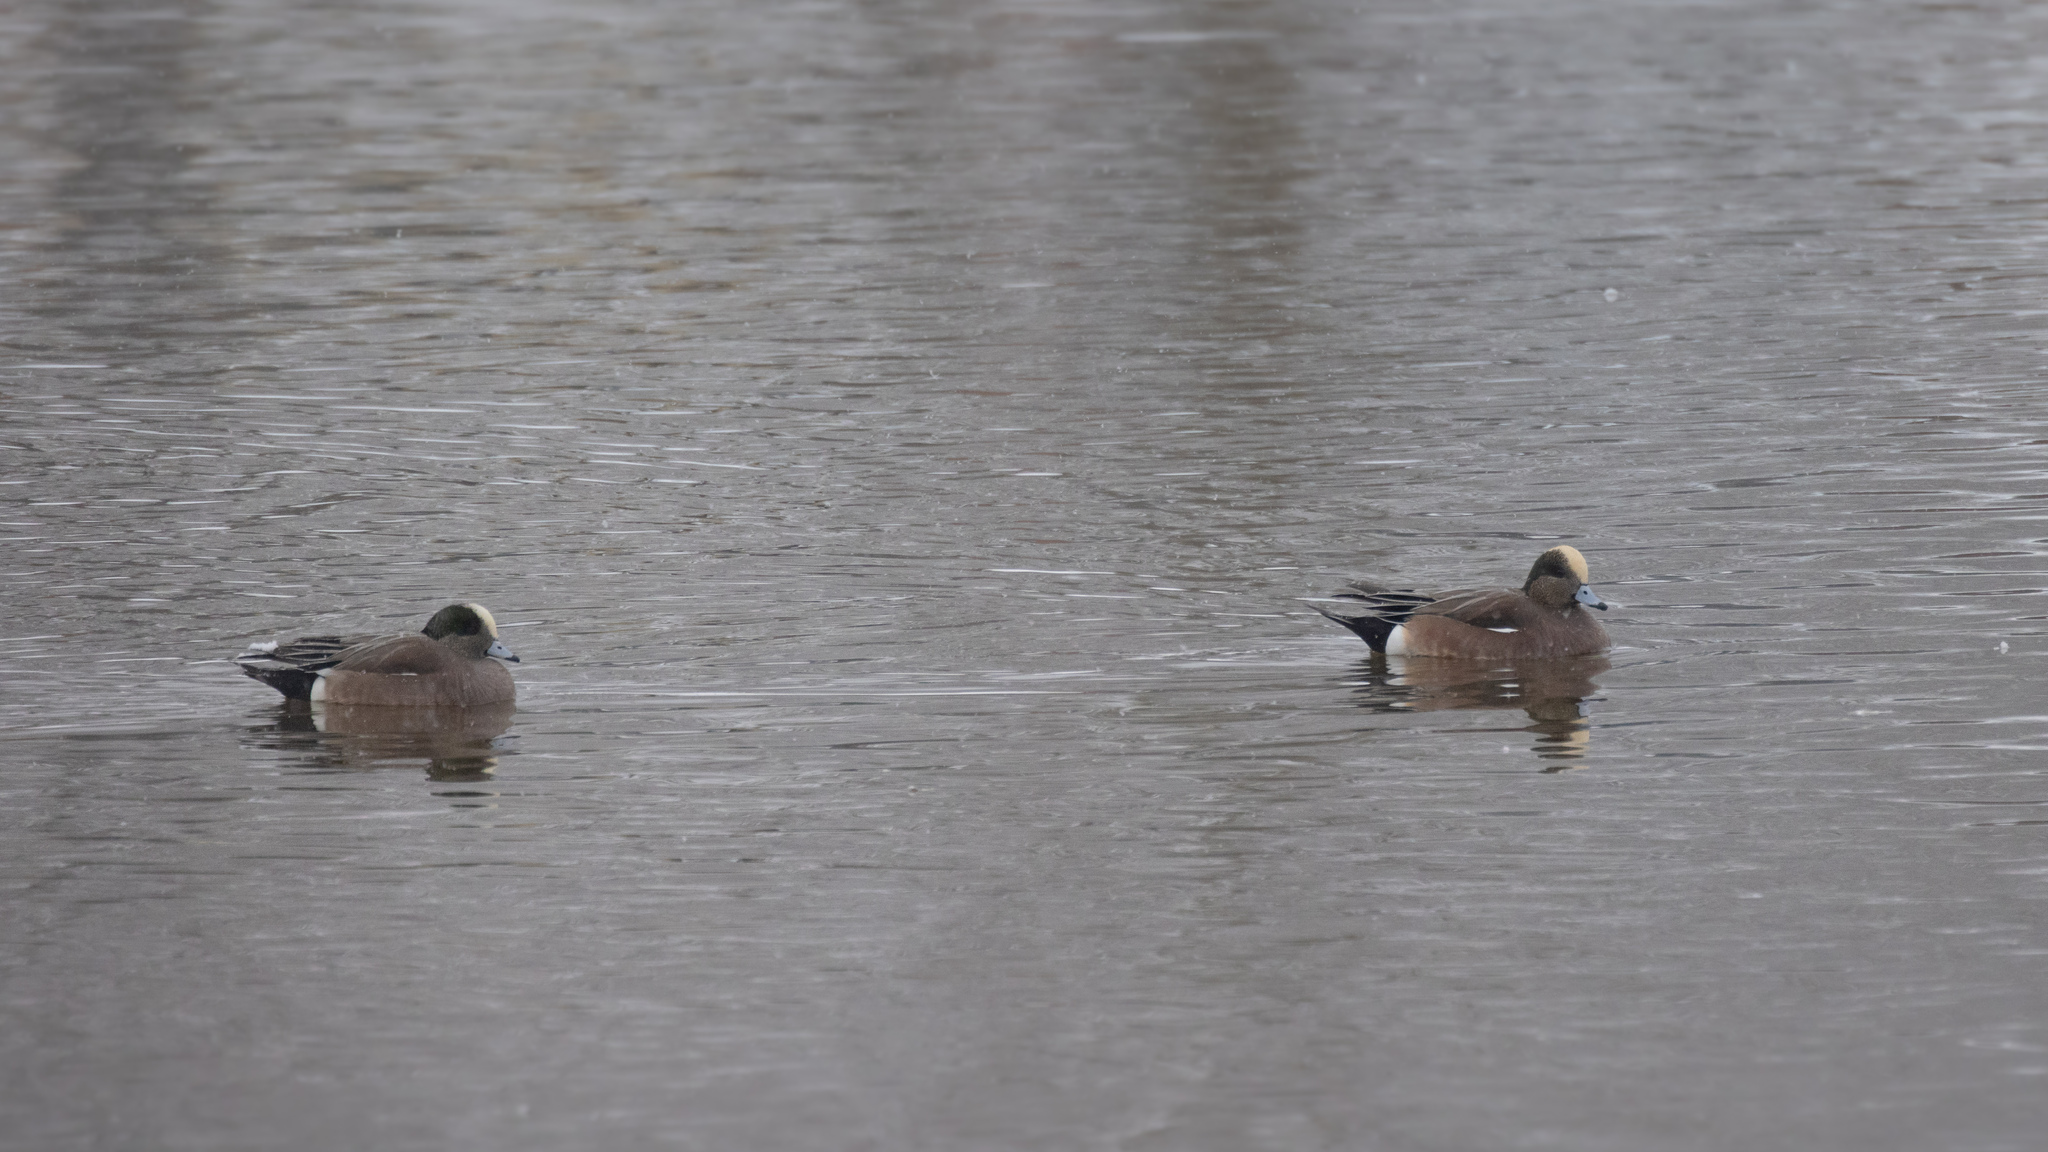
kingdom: Animalia
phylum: Chordata
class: Aves
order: Anseriformes
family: Anatidae
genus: Mareca
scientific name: Mareca americana
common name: American wigeon
